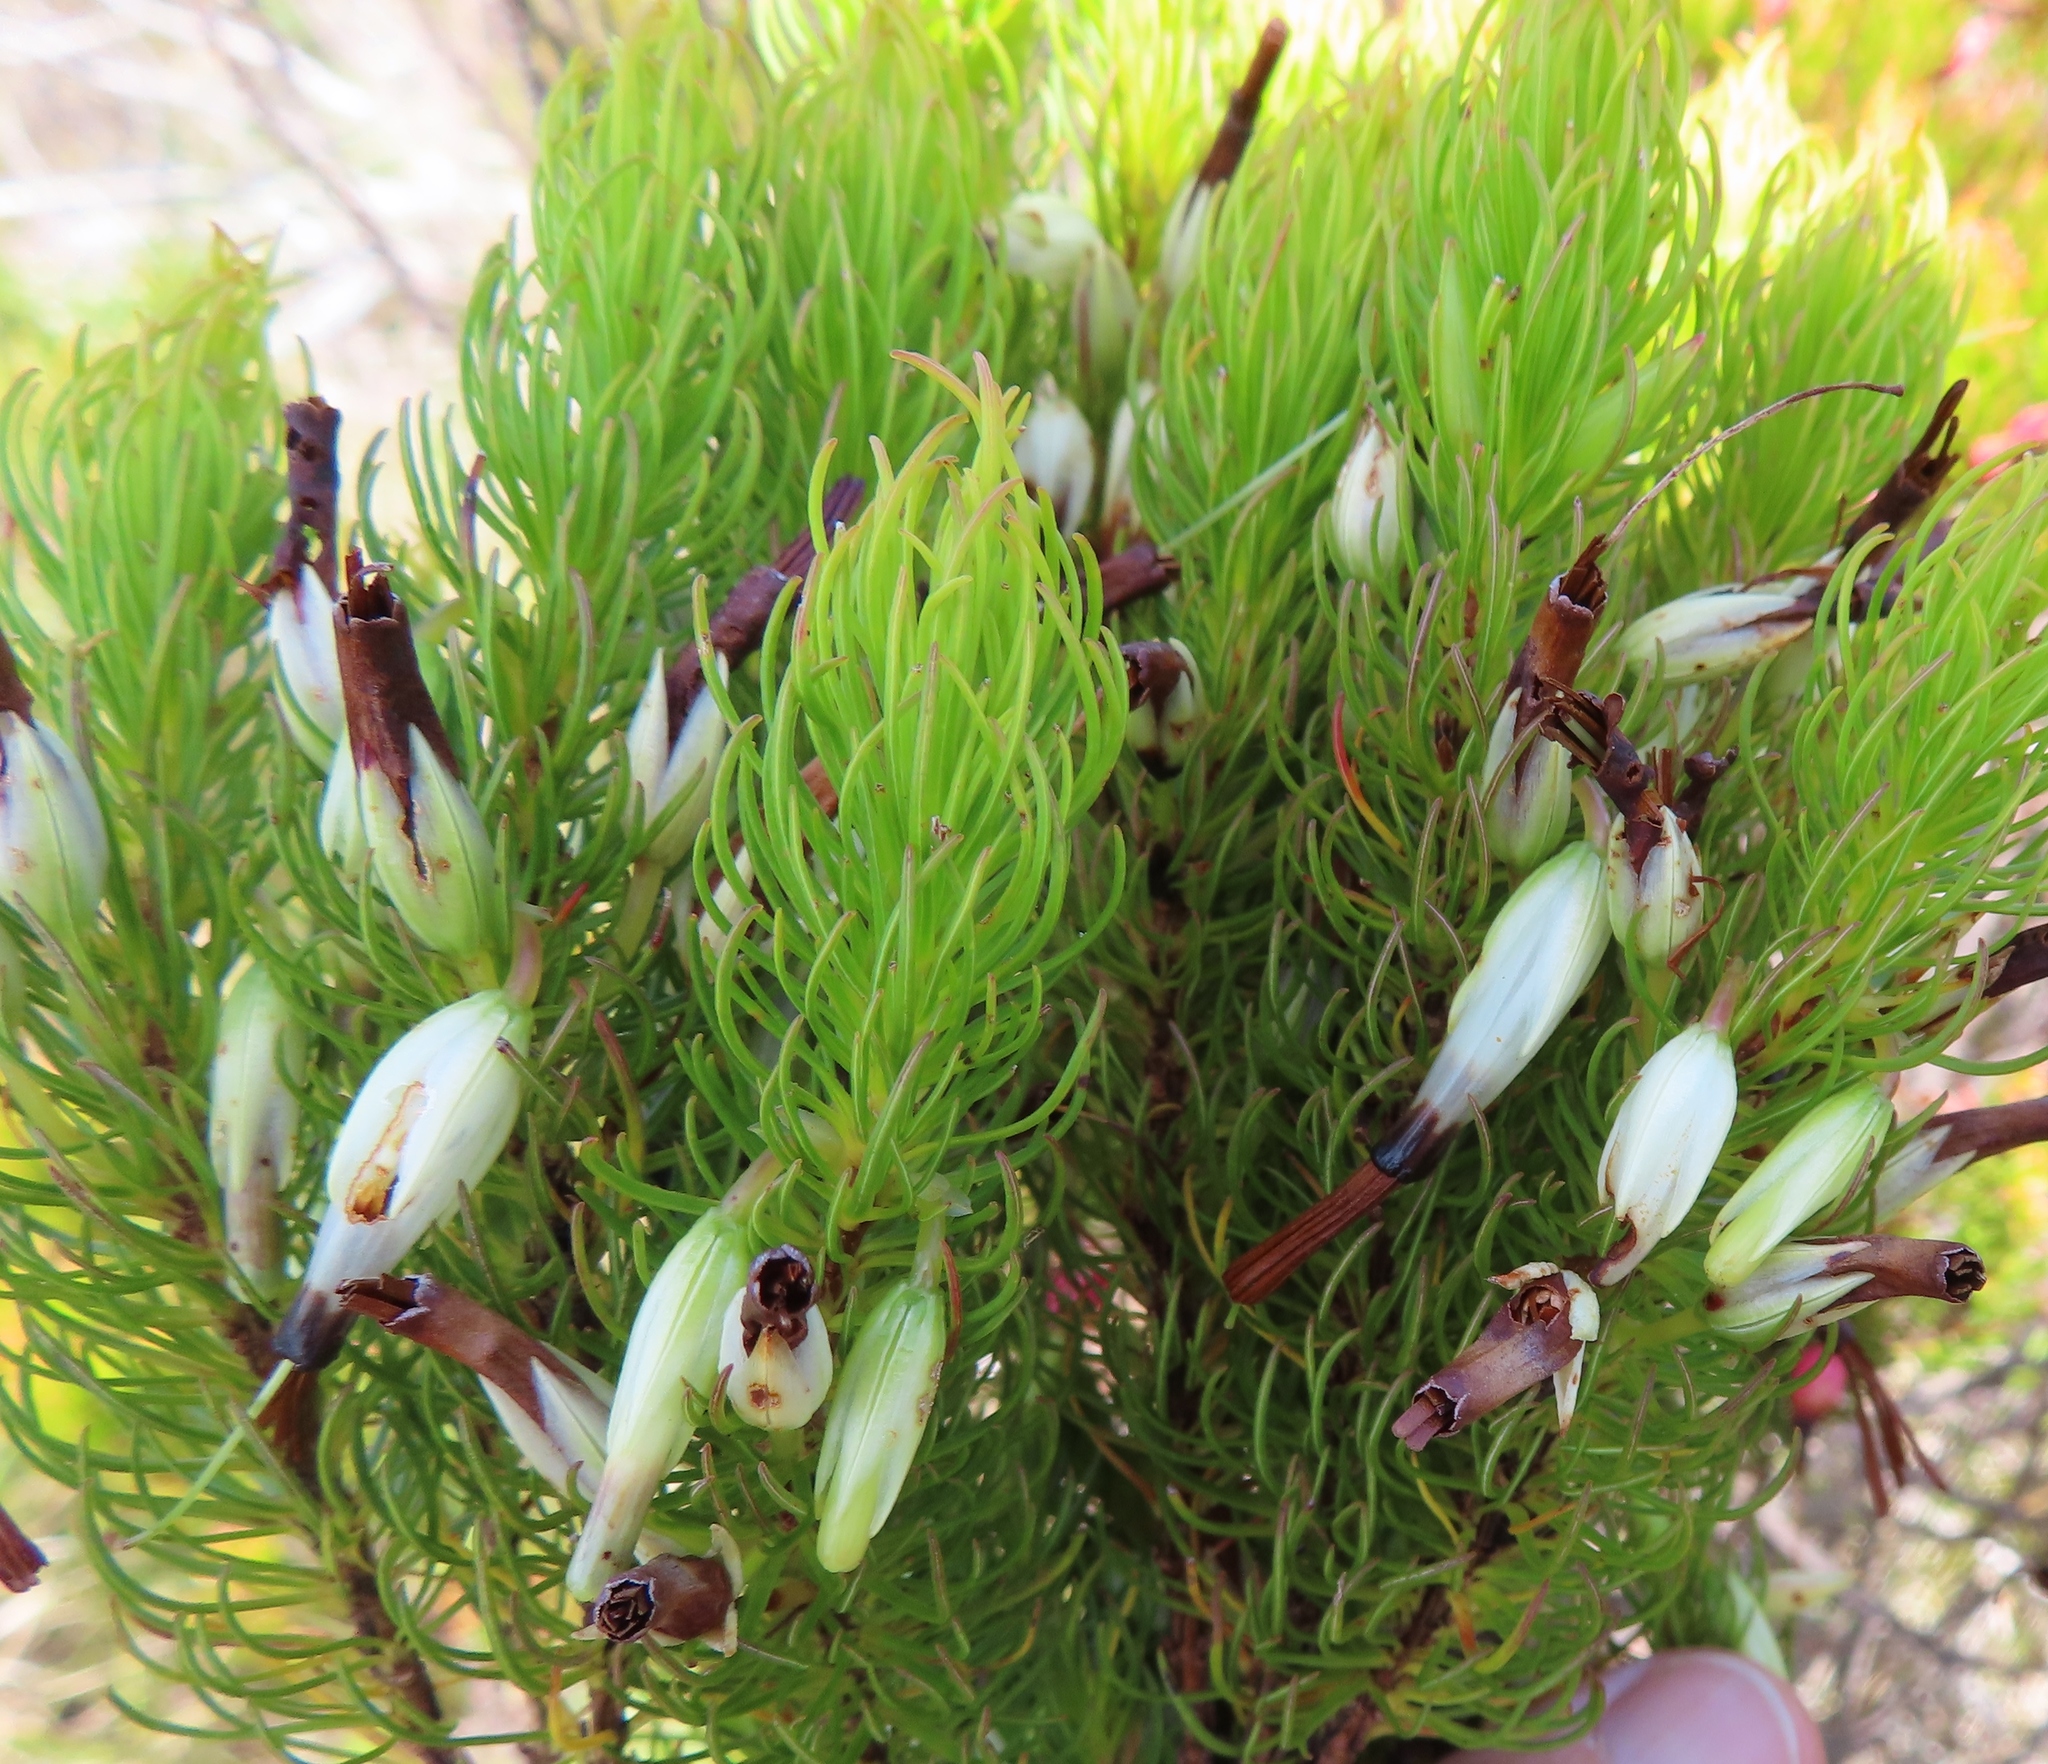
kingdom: Plantae
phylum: Tracheophyta
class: Magnoliopsida
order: Ericales
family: Ericaceae
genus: Erica
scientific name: Erica plukenetii
